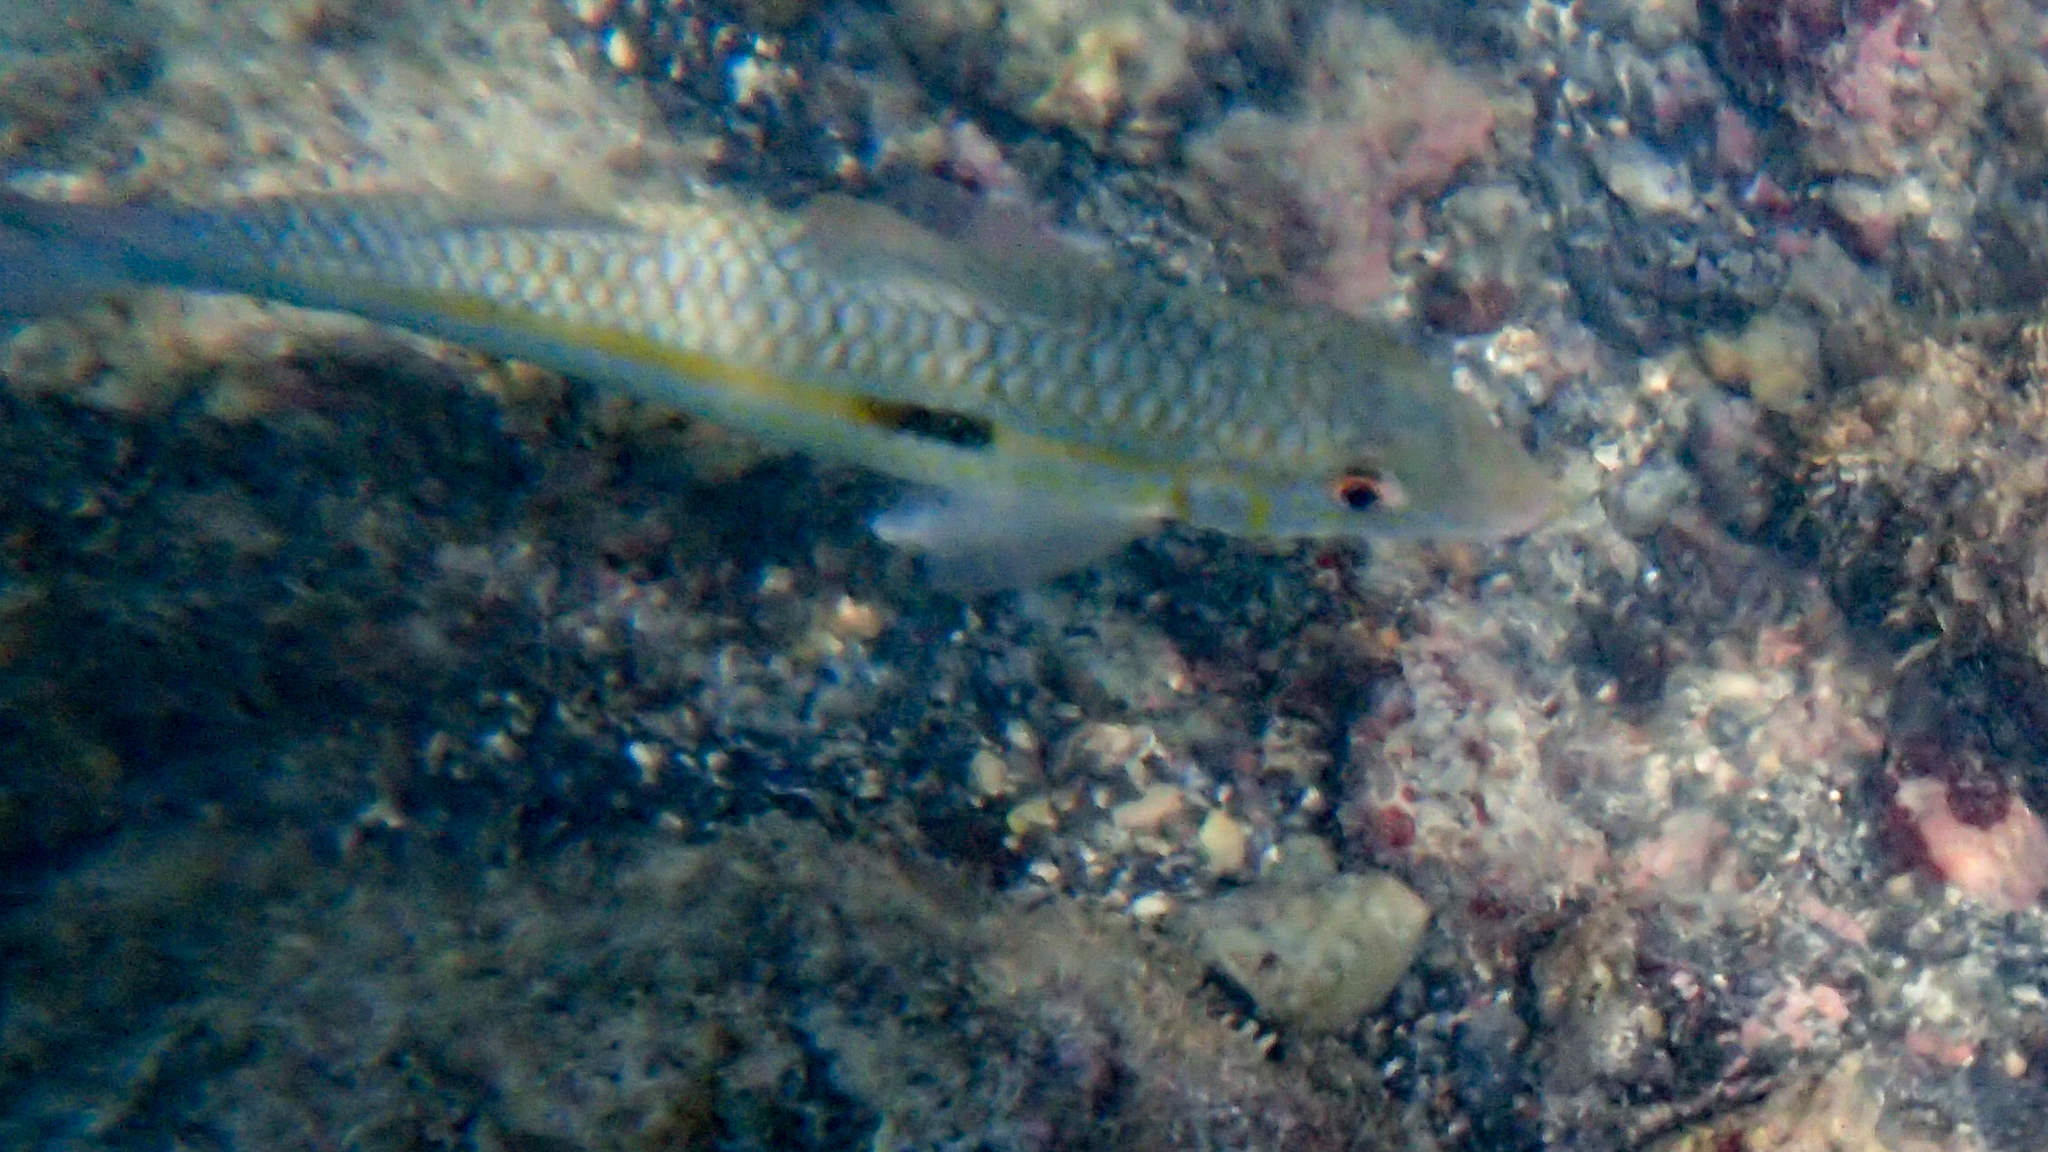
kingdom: Animalia
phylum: Chordata
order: Perciformes
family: Mullidae
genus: Mulloidichthys
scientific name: Mulloidichthys flavolineatus
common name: Yellowstripe goatfish
